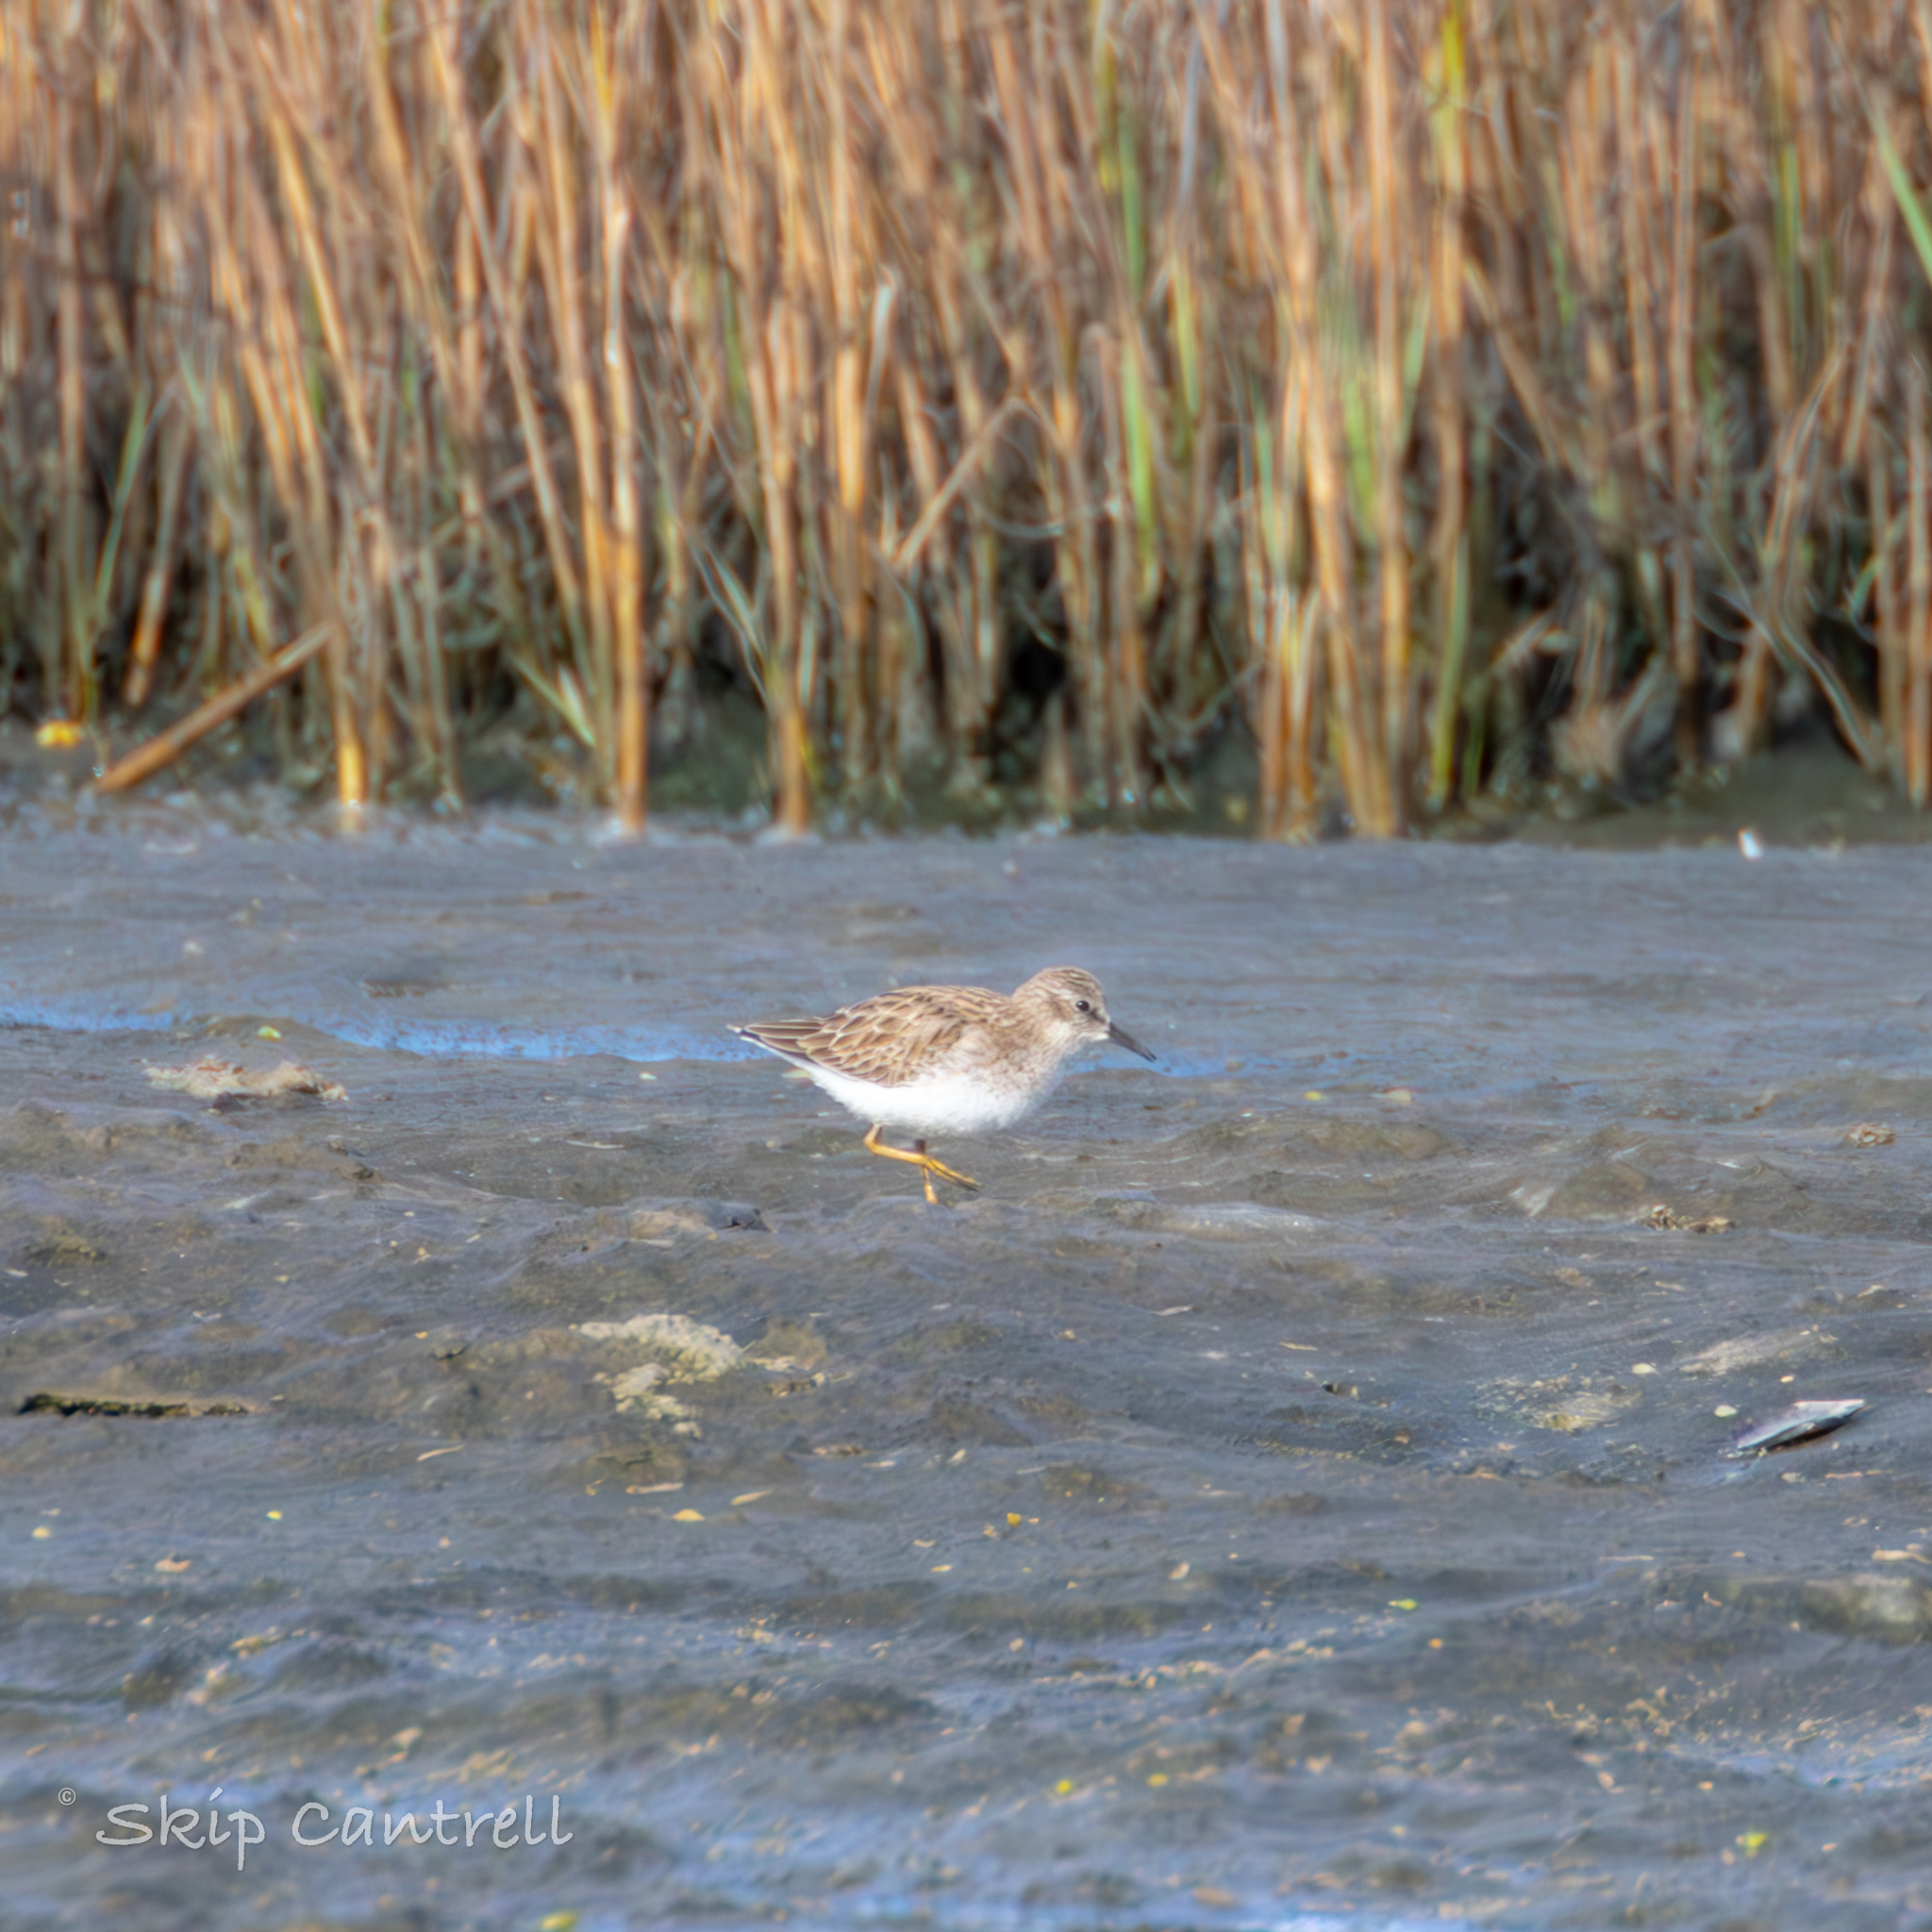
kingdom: Animalia
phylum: Chordata
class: Aves
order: Charadriiformes
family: Scolopacidae
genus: Calidris
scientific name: Calidris minutilla
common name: Least sandpiper
